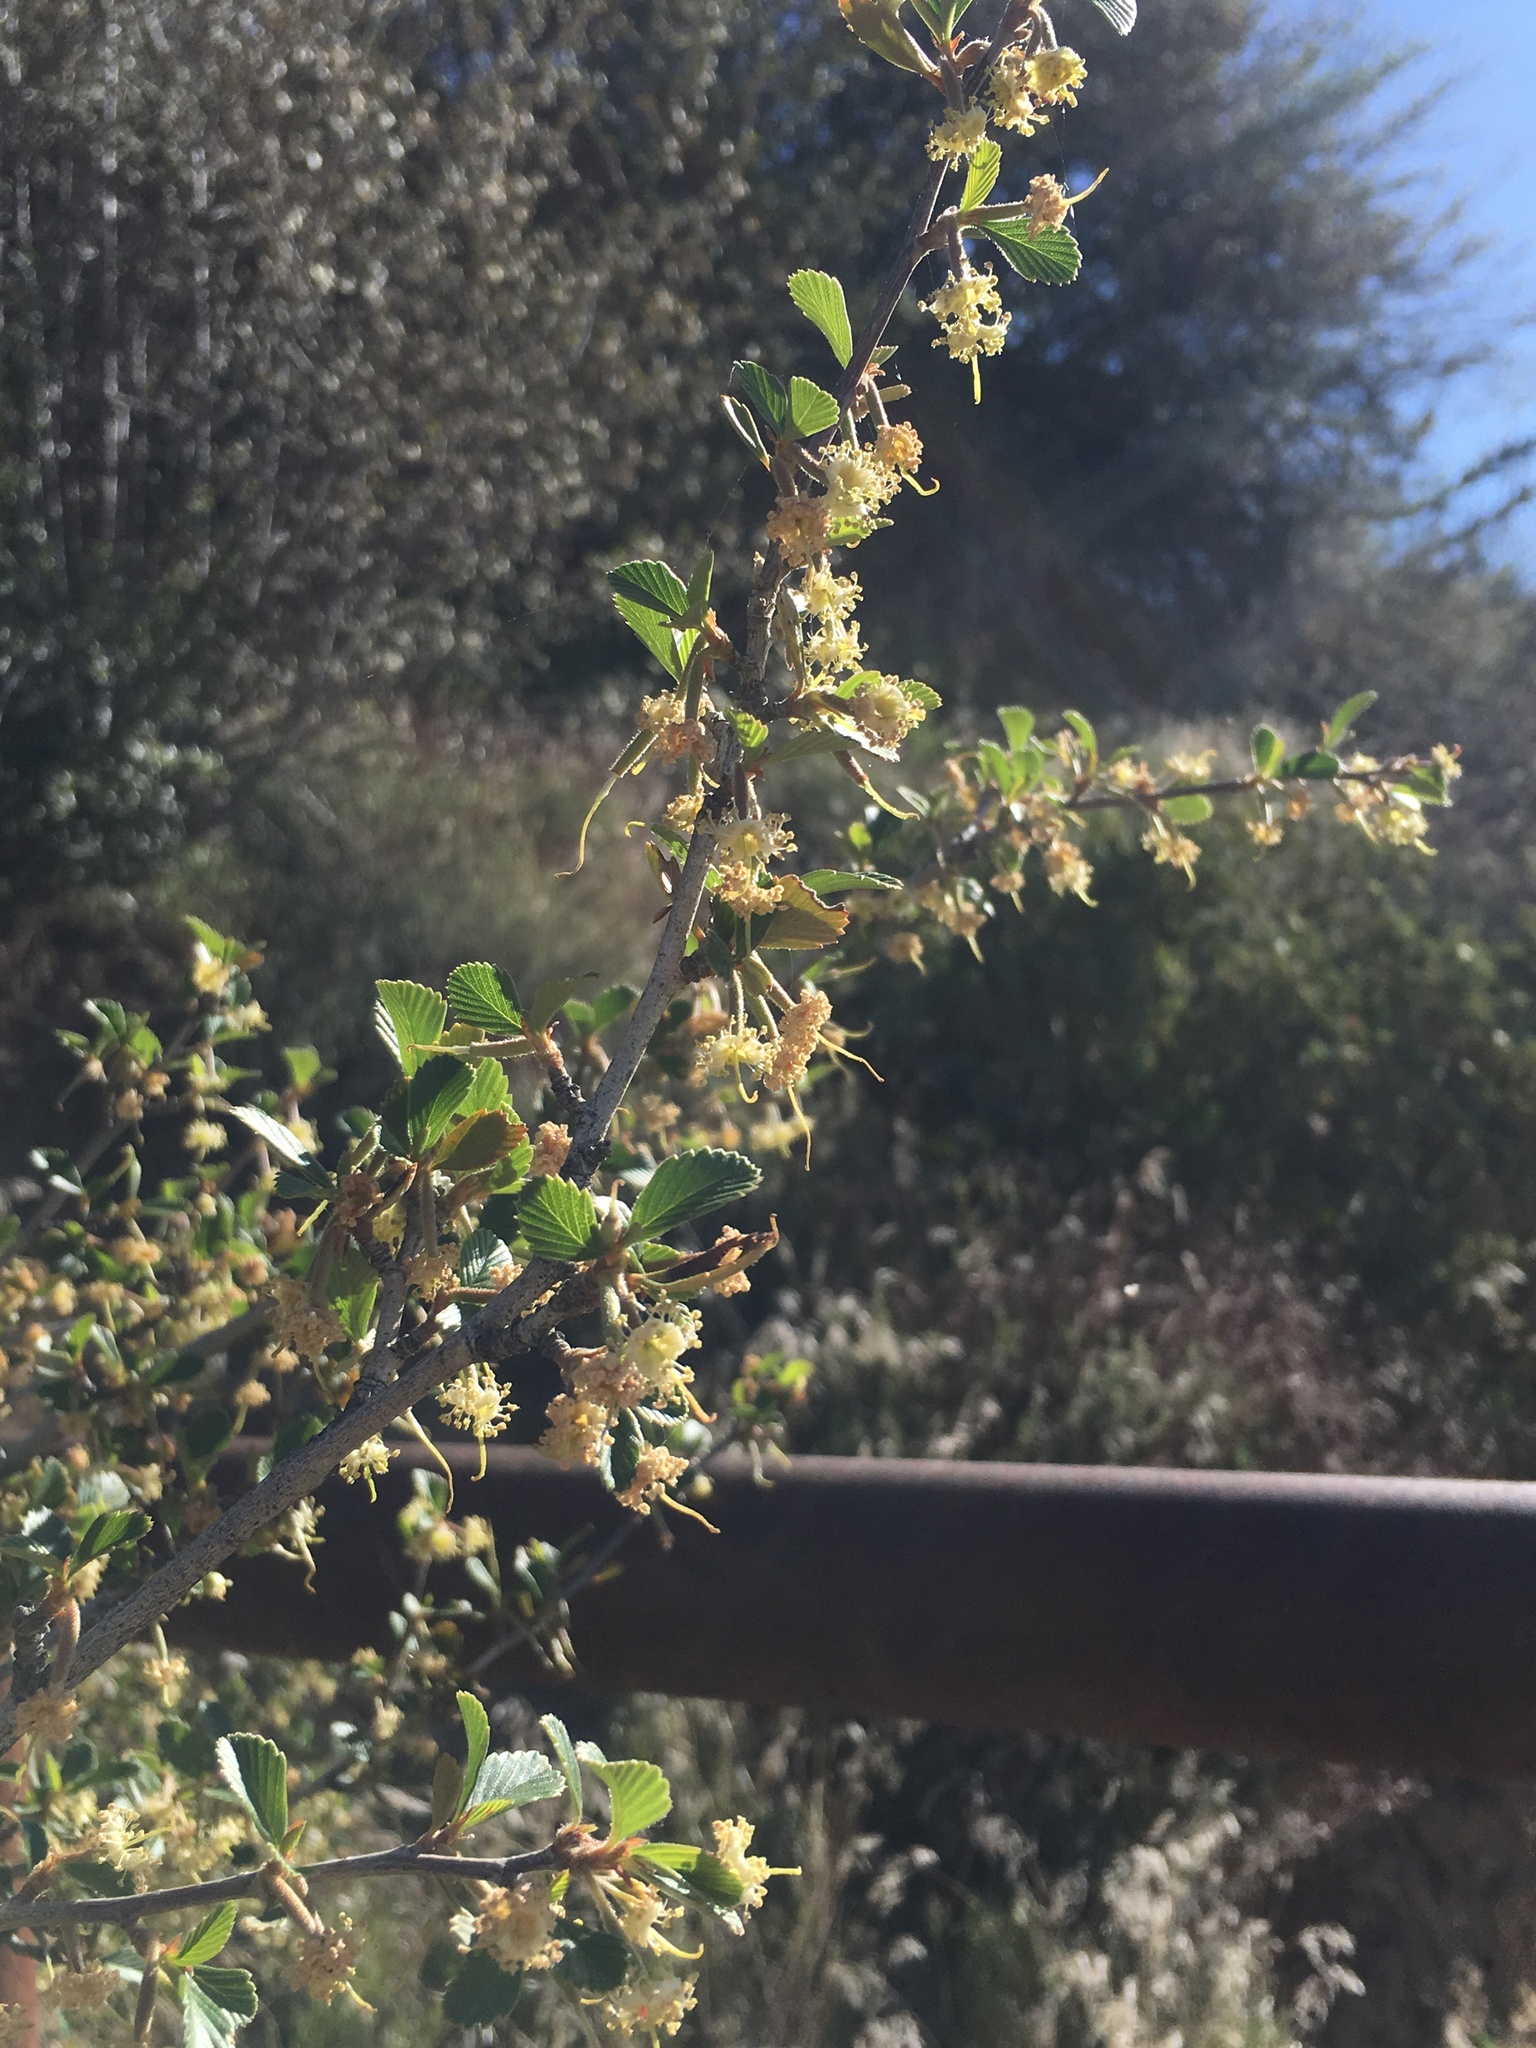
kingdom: Plantae
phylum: Tracheophyta
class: Magnoliopsida
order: Rosales
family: Rosaceae
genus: Cercocarpus
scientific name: Cercocarpus betuloides
